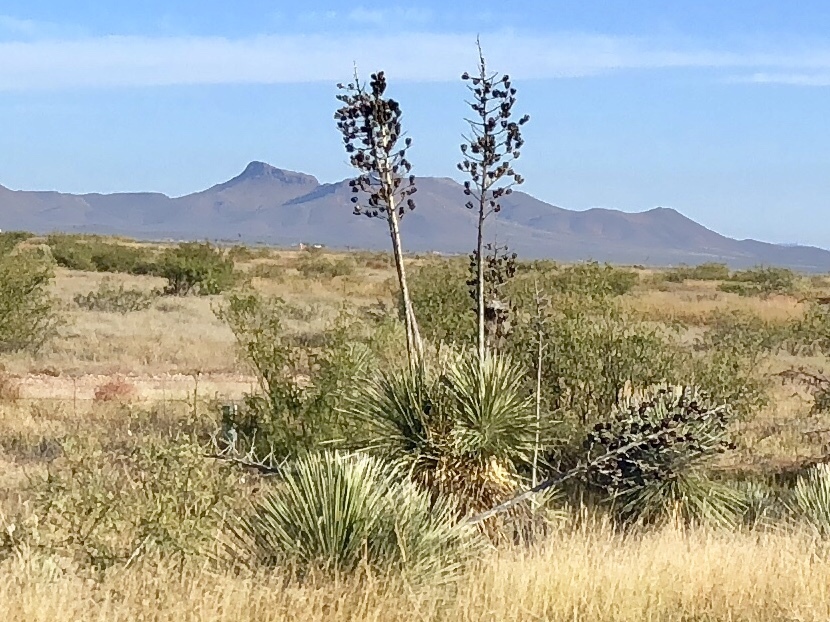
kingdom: Plantae
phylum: Tracheophyta
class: Liliopsida
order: Asparagales
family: Asparagaceae
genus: Yucca
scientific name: Yucca elata
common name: Palmella
